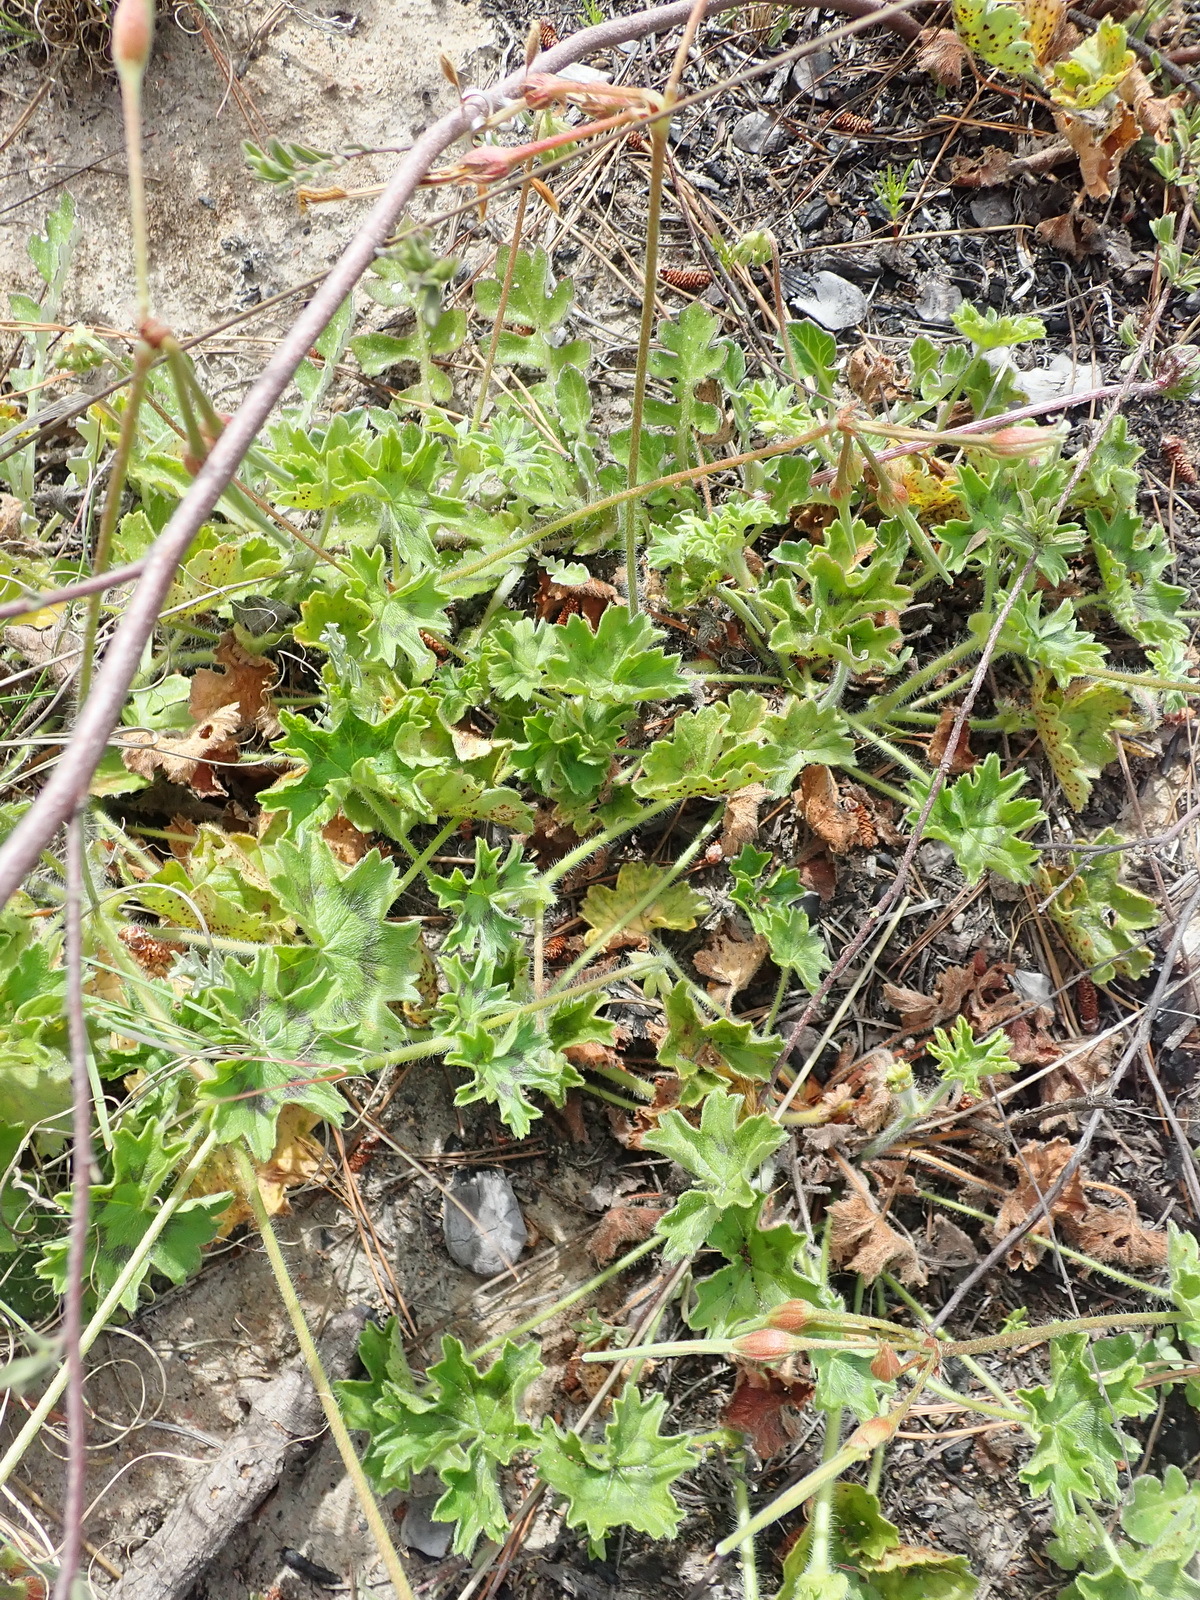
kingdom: Plantae
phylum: Tracheophyta
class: Magnoliopsida
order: Geraniales
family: Geraniaceae
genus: Pelargonium
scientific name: Pelargonium alchemilloides
